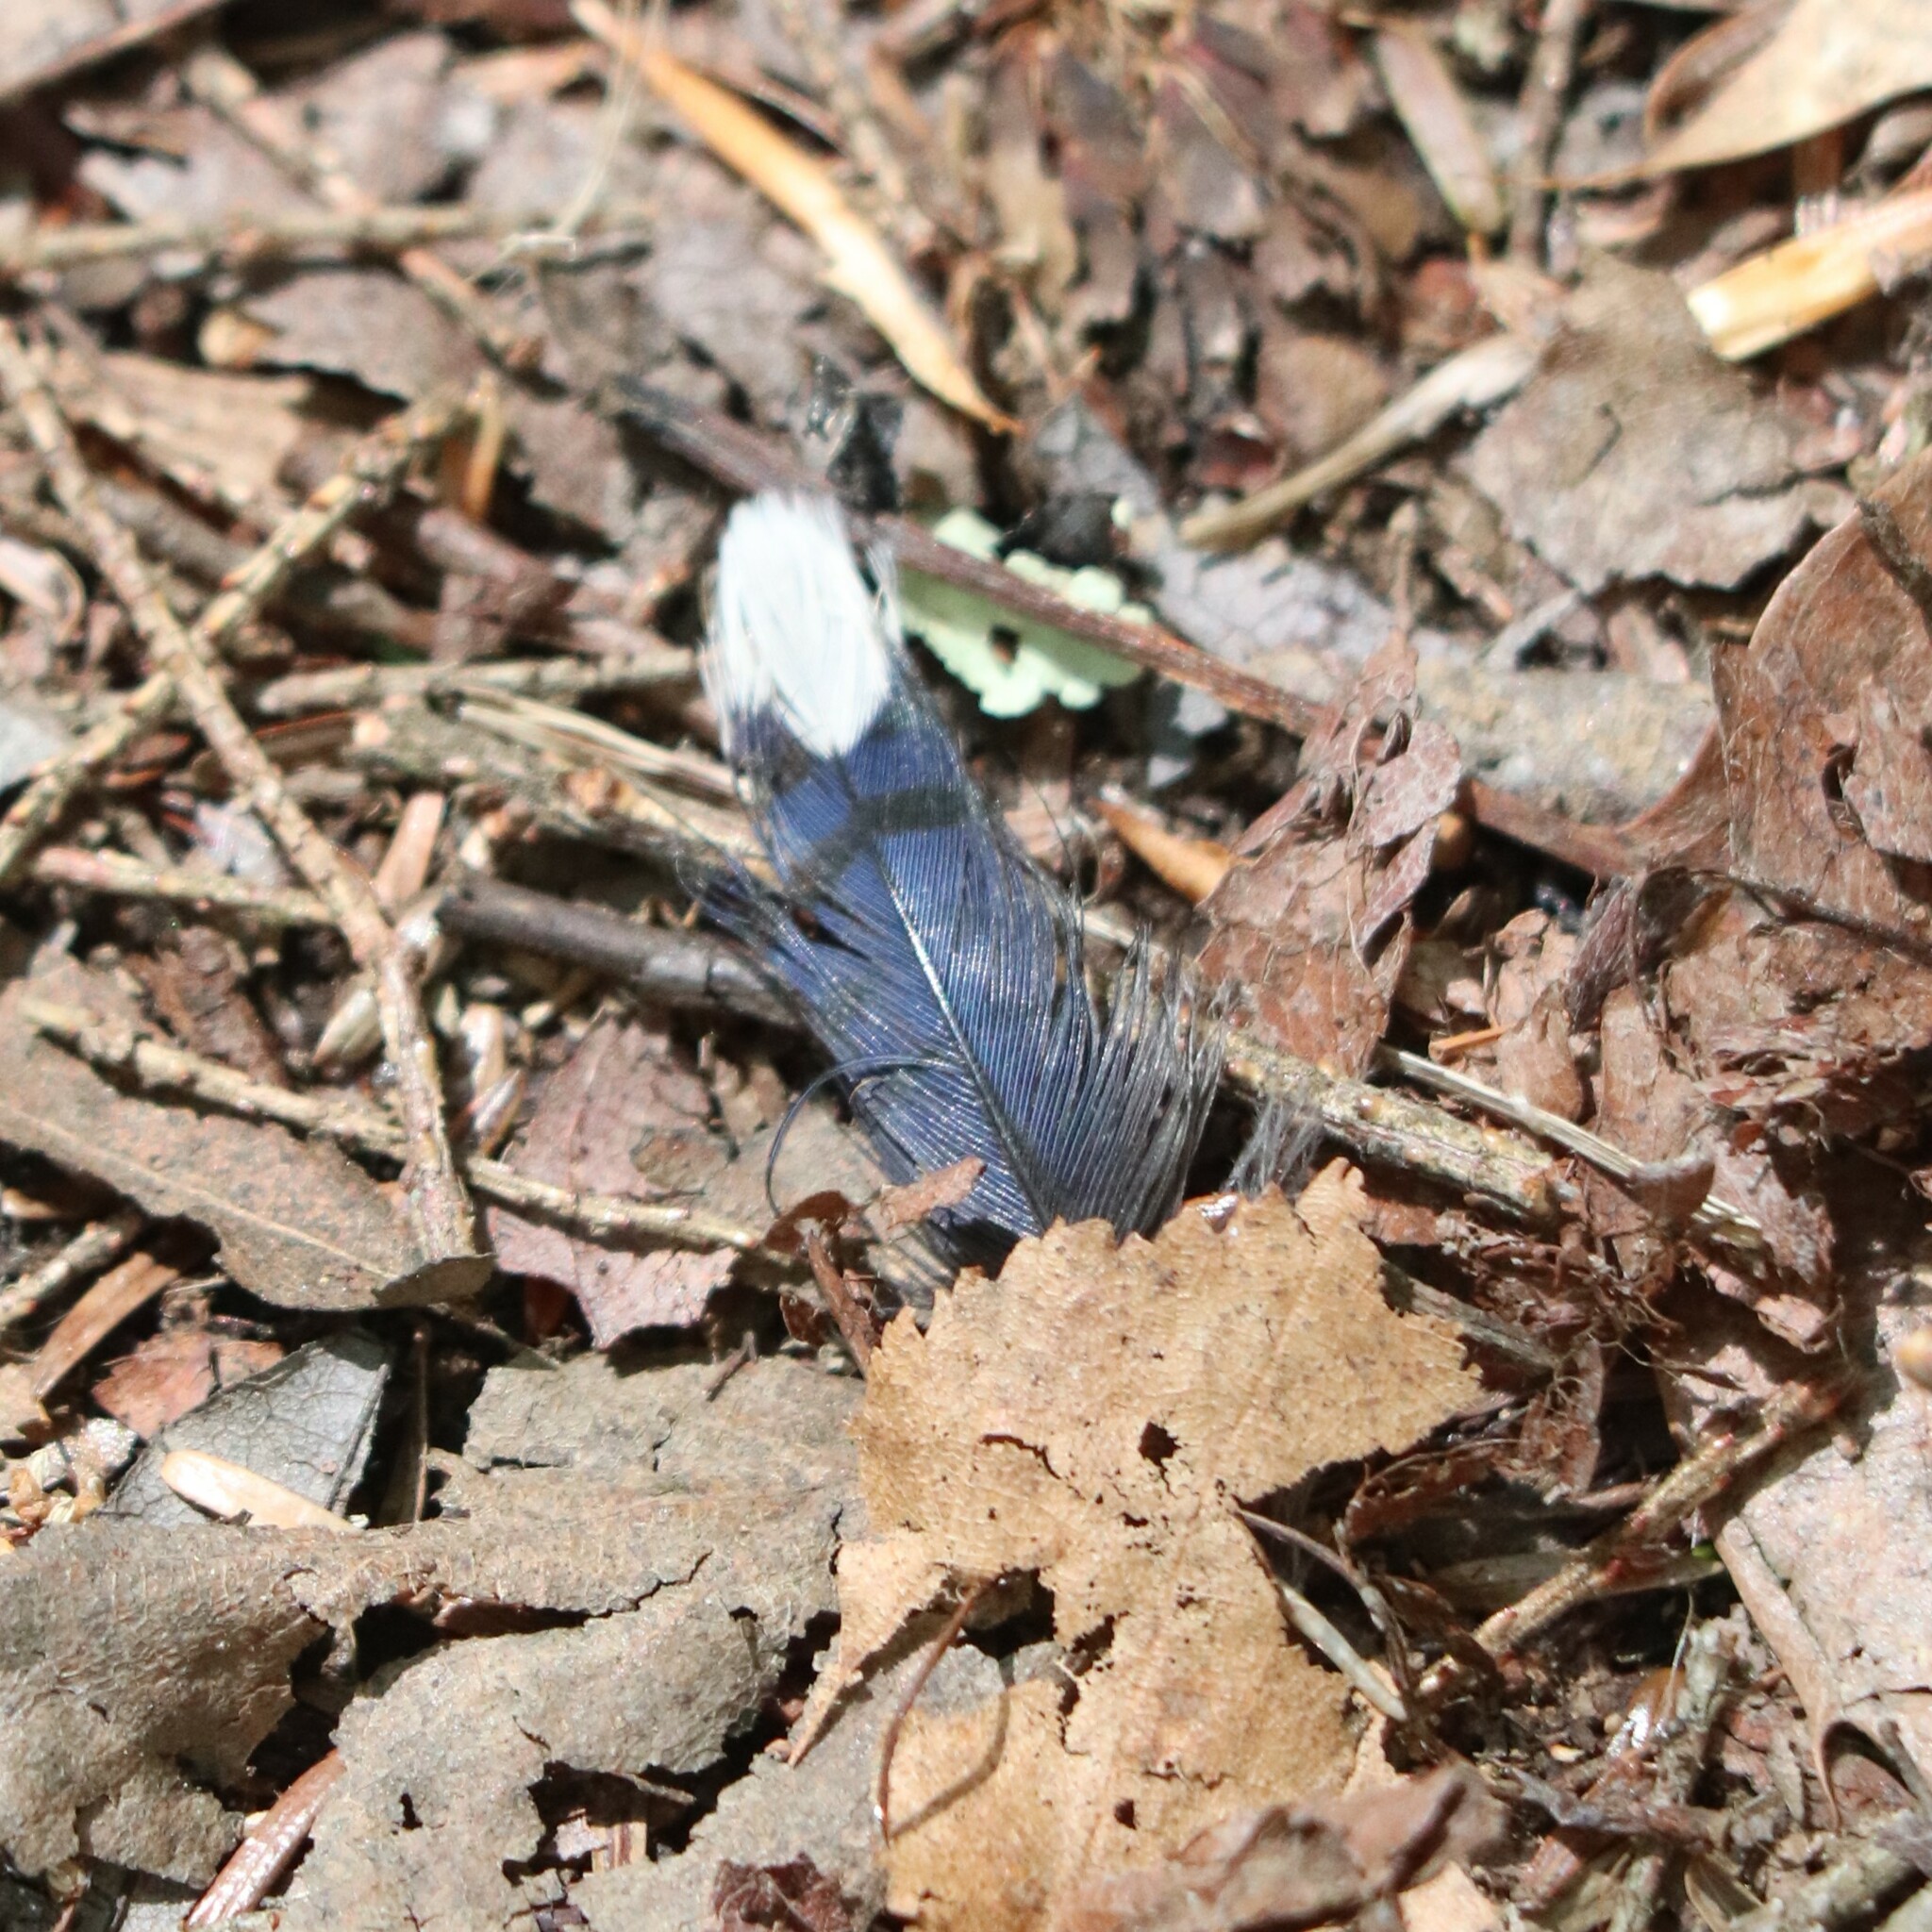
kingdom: Animalia
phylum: Chordata
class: Aves
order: Passeriformes
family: Corvidae
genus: Cyanocitta
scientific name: Cyanocitta cristata
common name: Blue jay
